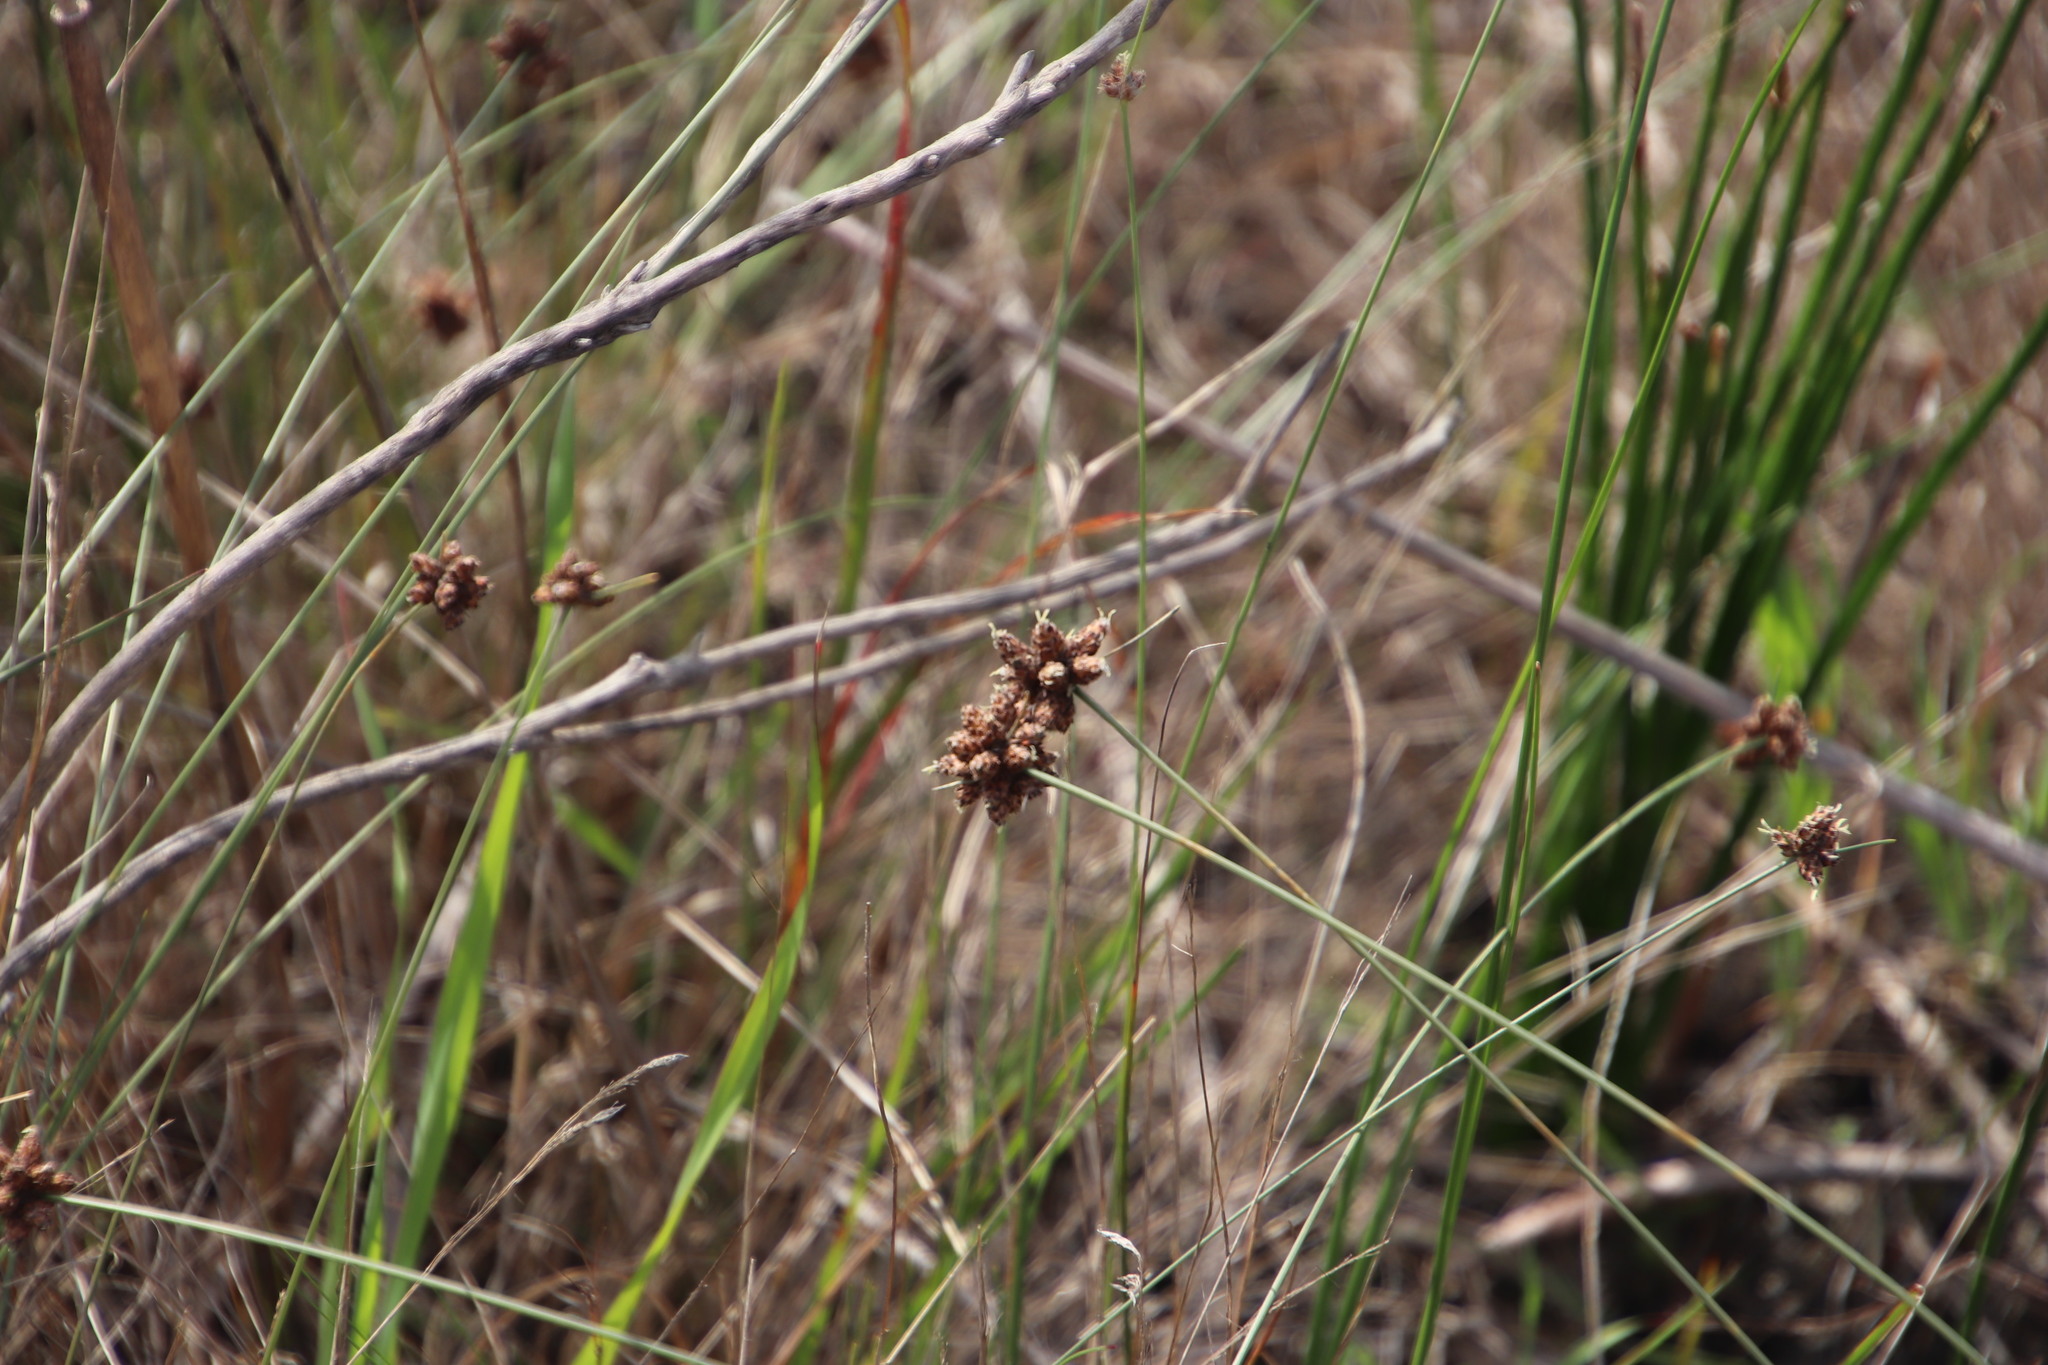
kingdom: Plantae
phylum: Tracheophyta
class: Liliopsida
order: Poales
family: Cyperaceae
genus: Ficinia
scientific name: Ficinia ecklonea
